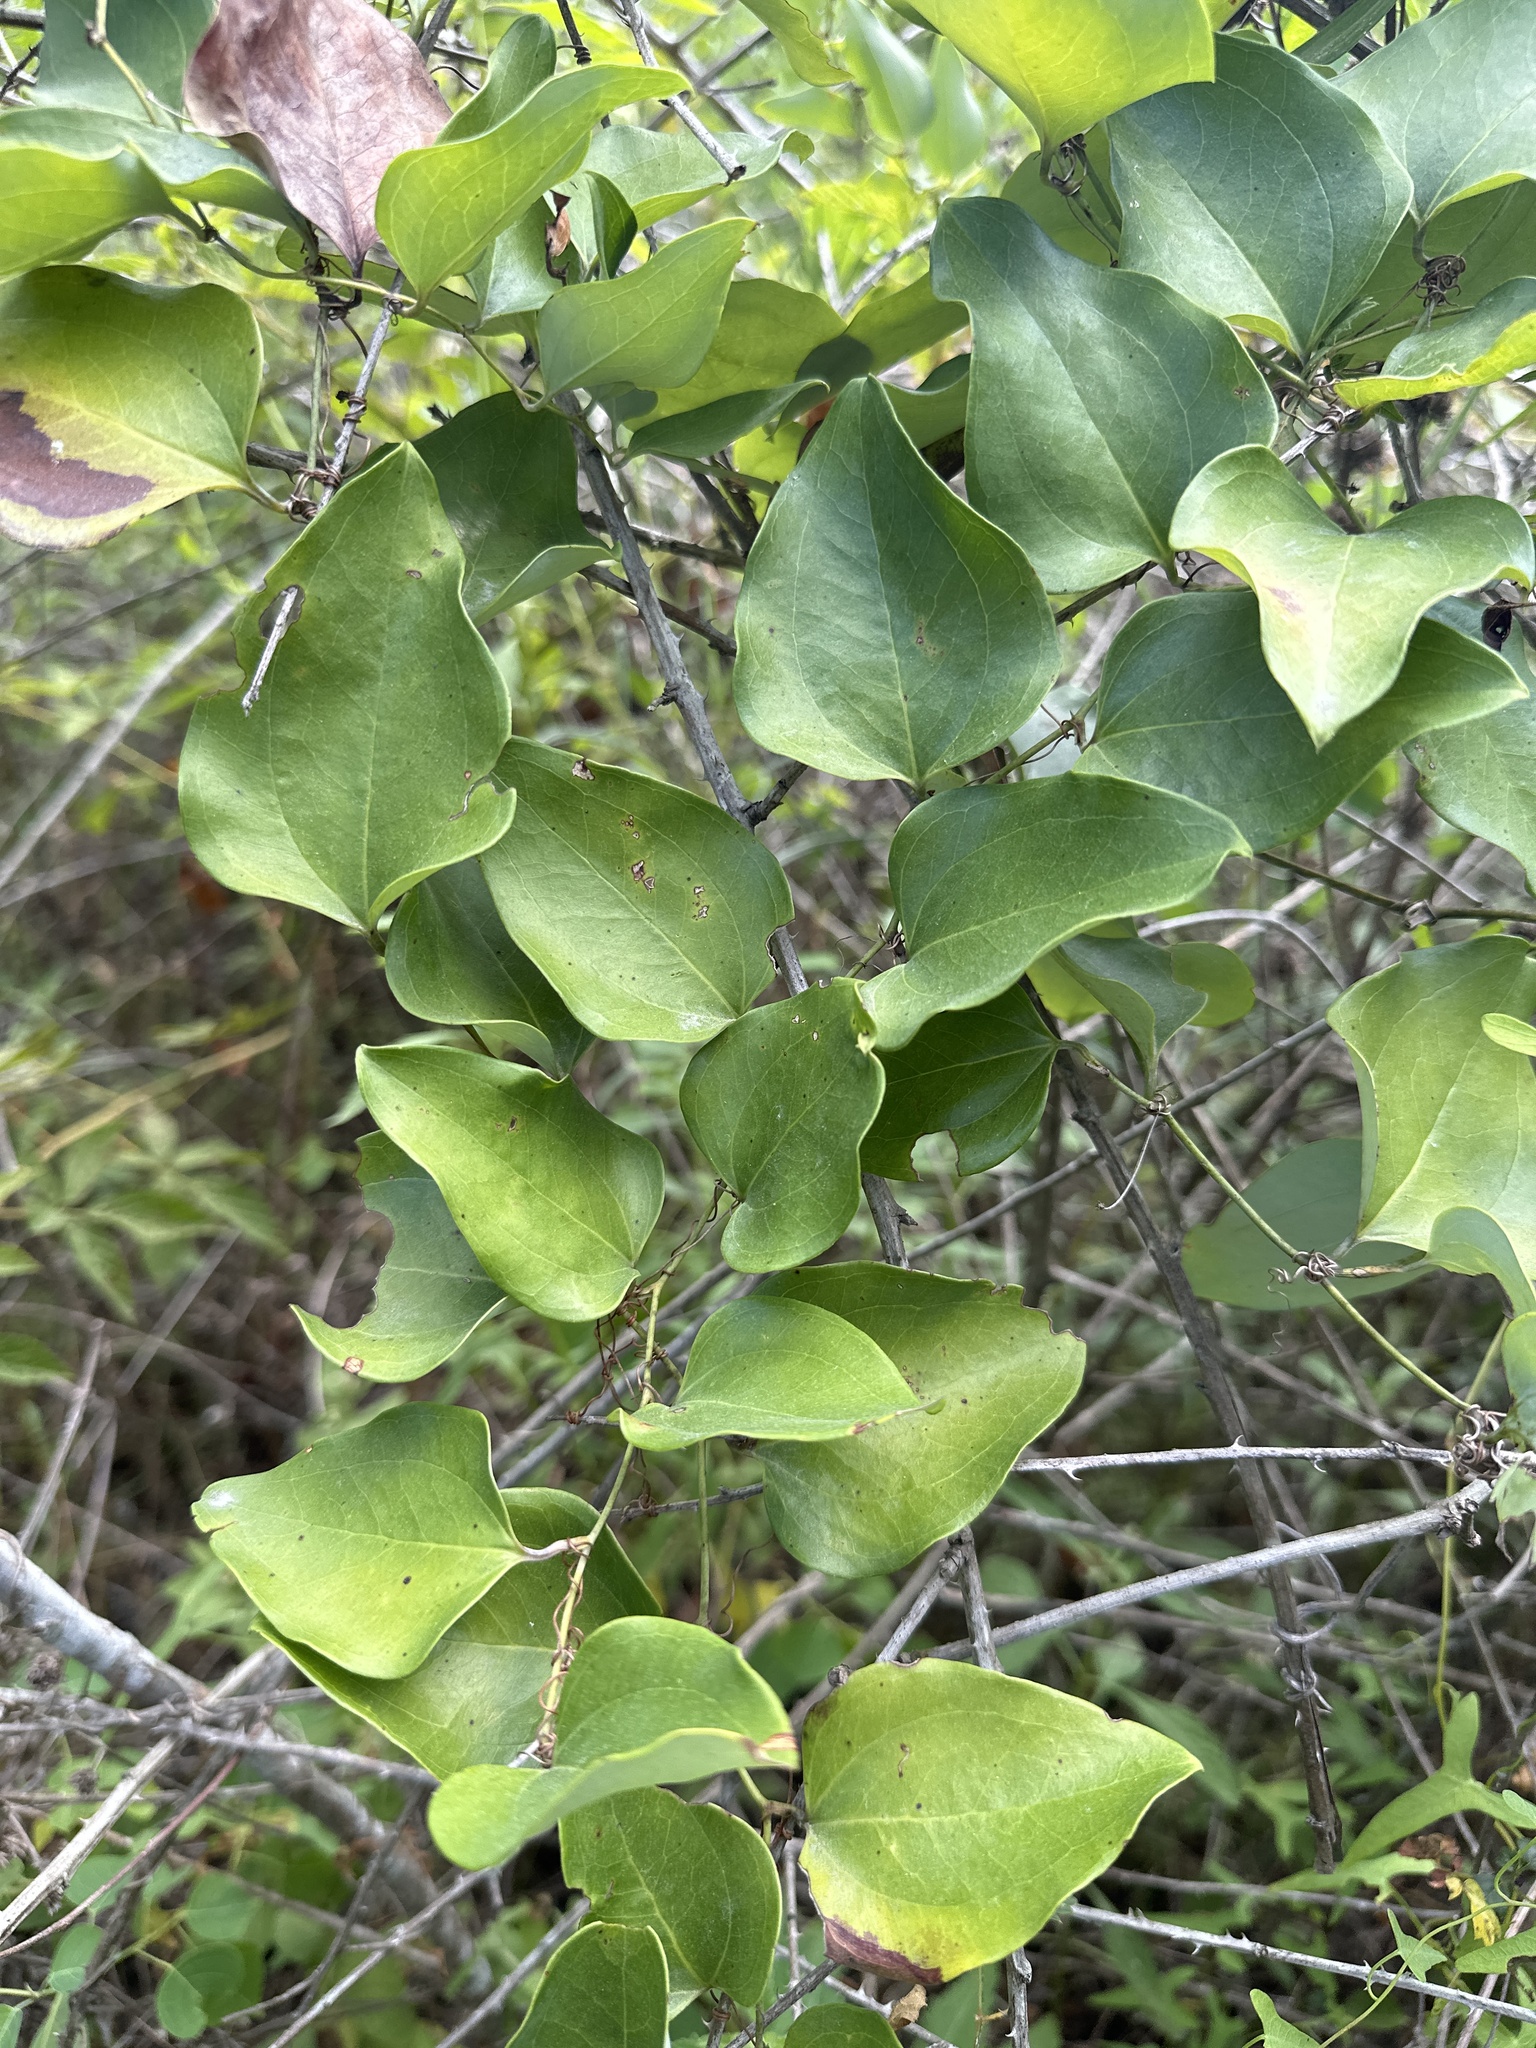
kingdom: Plantae
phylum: Tracheophyta
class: Liliopsida
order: Liliales
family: Smilacaceae
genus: Smilax
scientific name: Smilax bona-nox
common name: Catbrier
